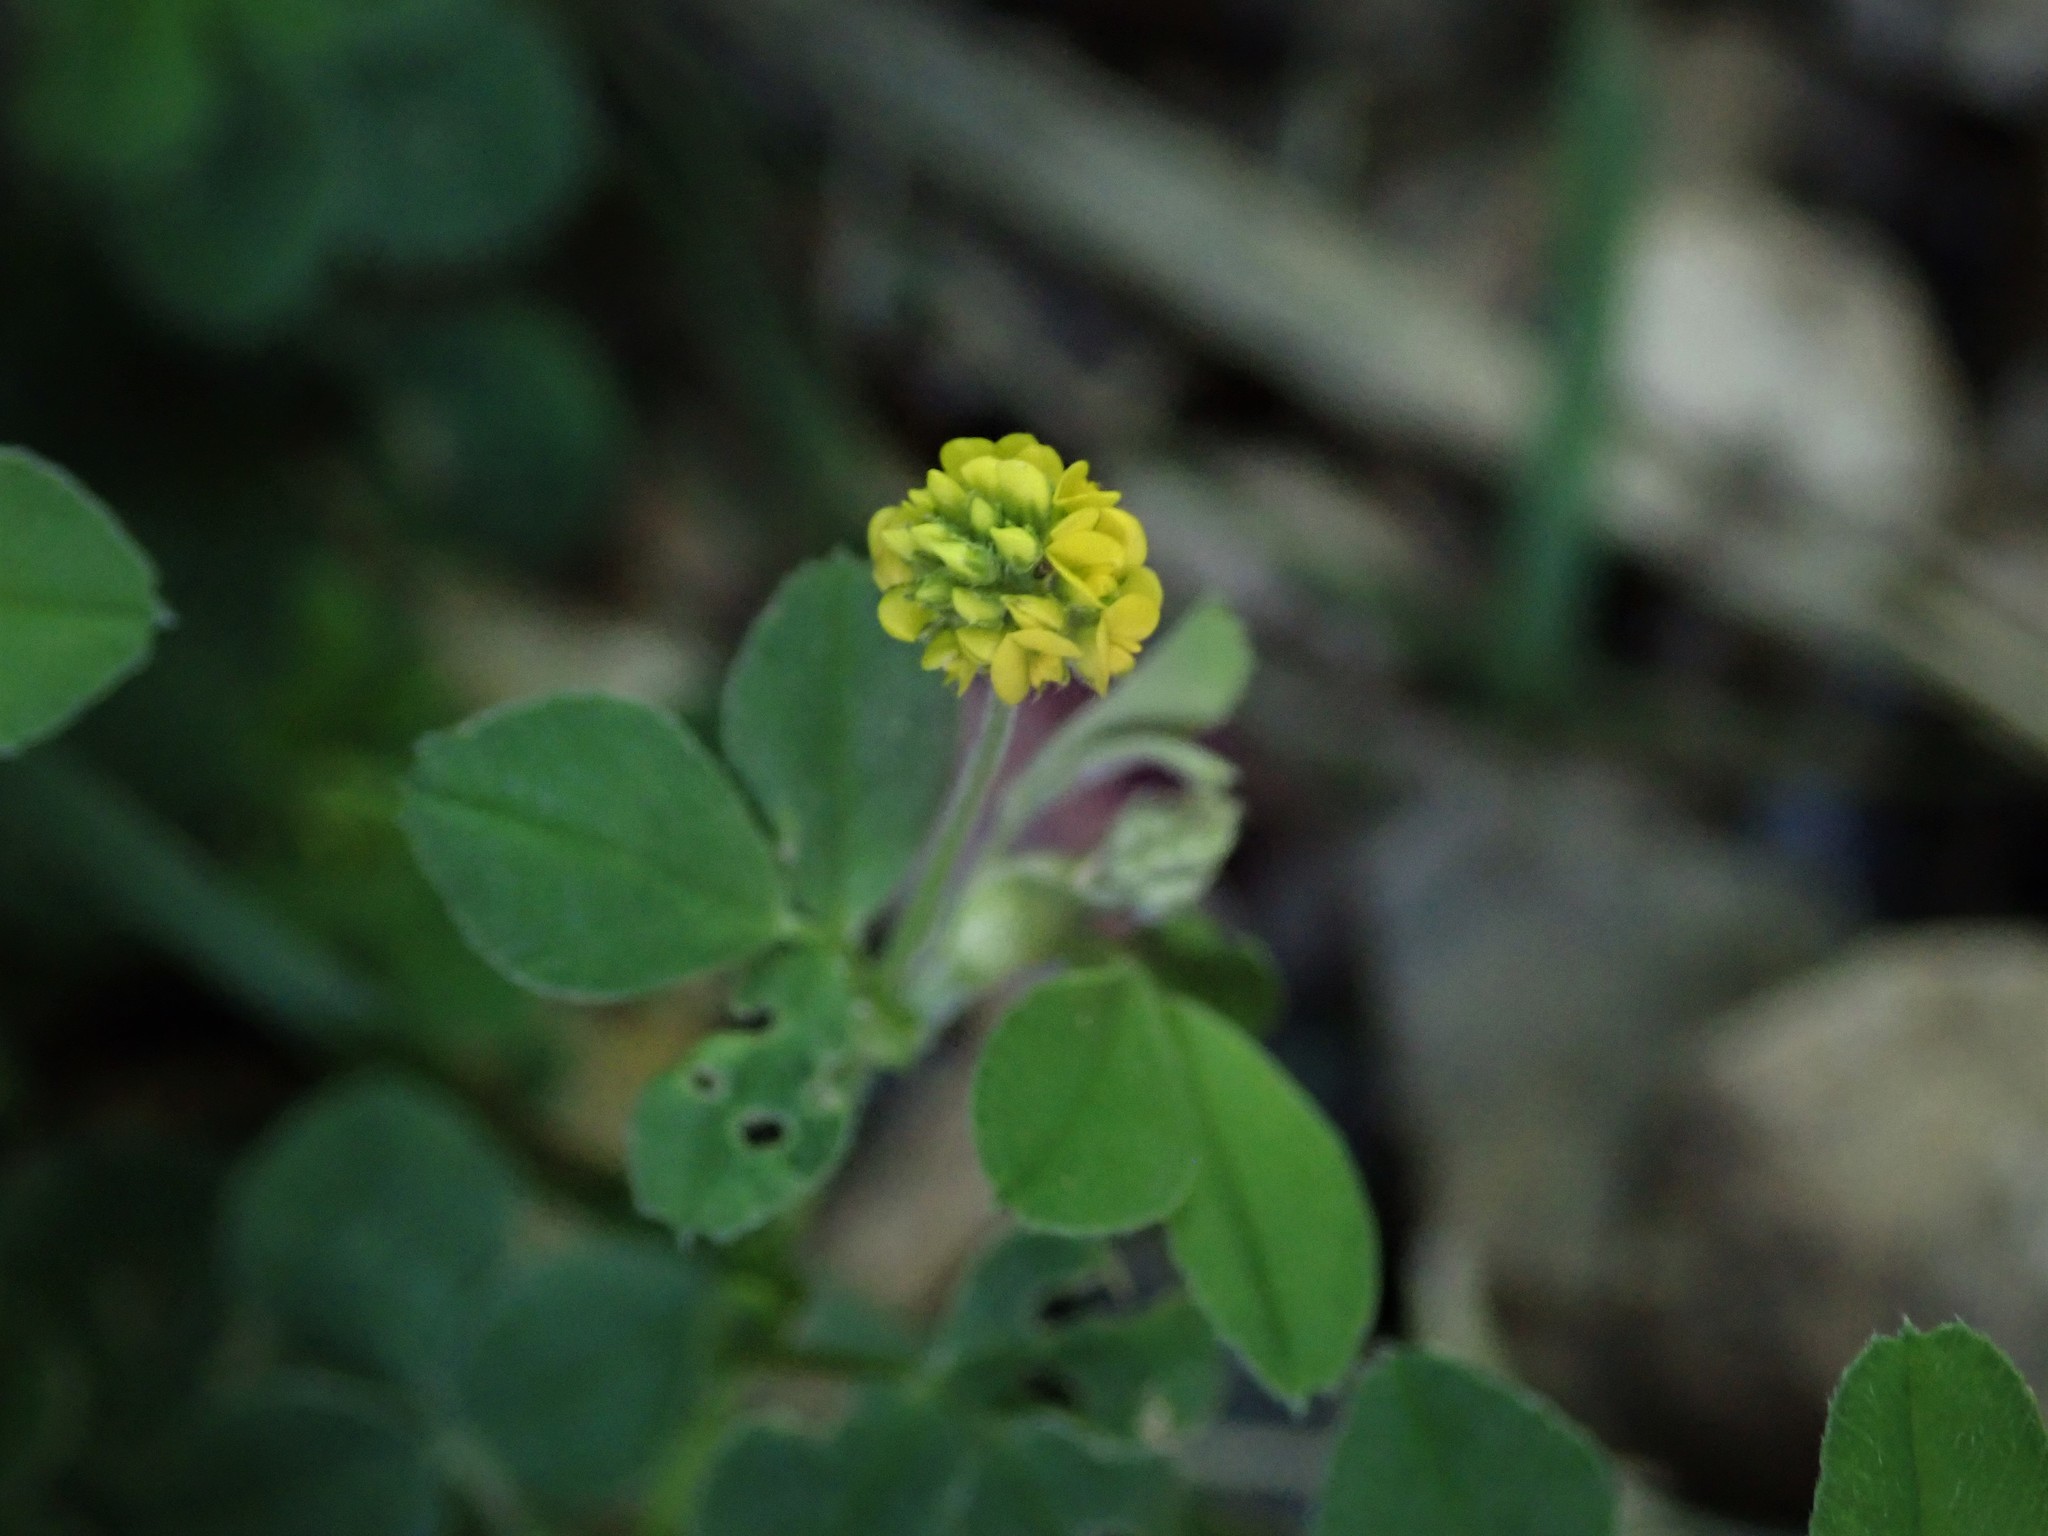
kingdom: Plantae
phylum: Tracheophyta
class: Magnoliopsida
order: Fabales
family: Fabaceae
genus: Medicago
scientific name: Medicago lupulina
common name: Black medick
